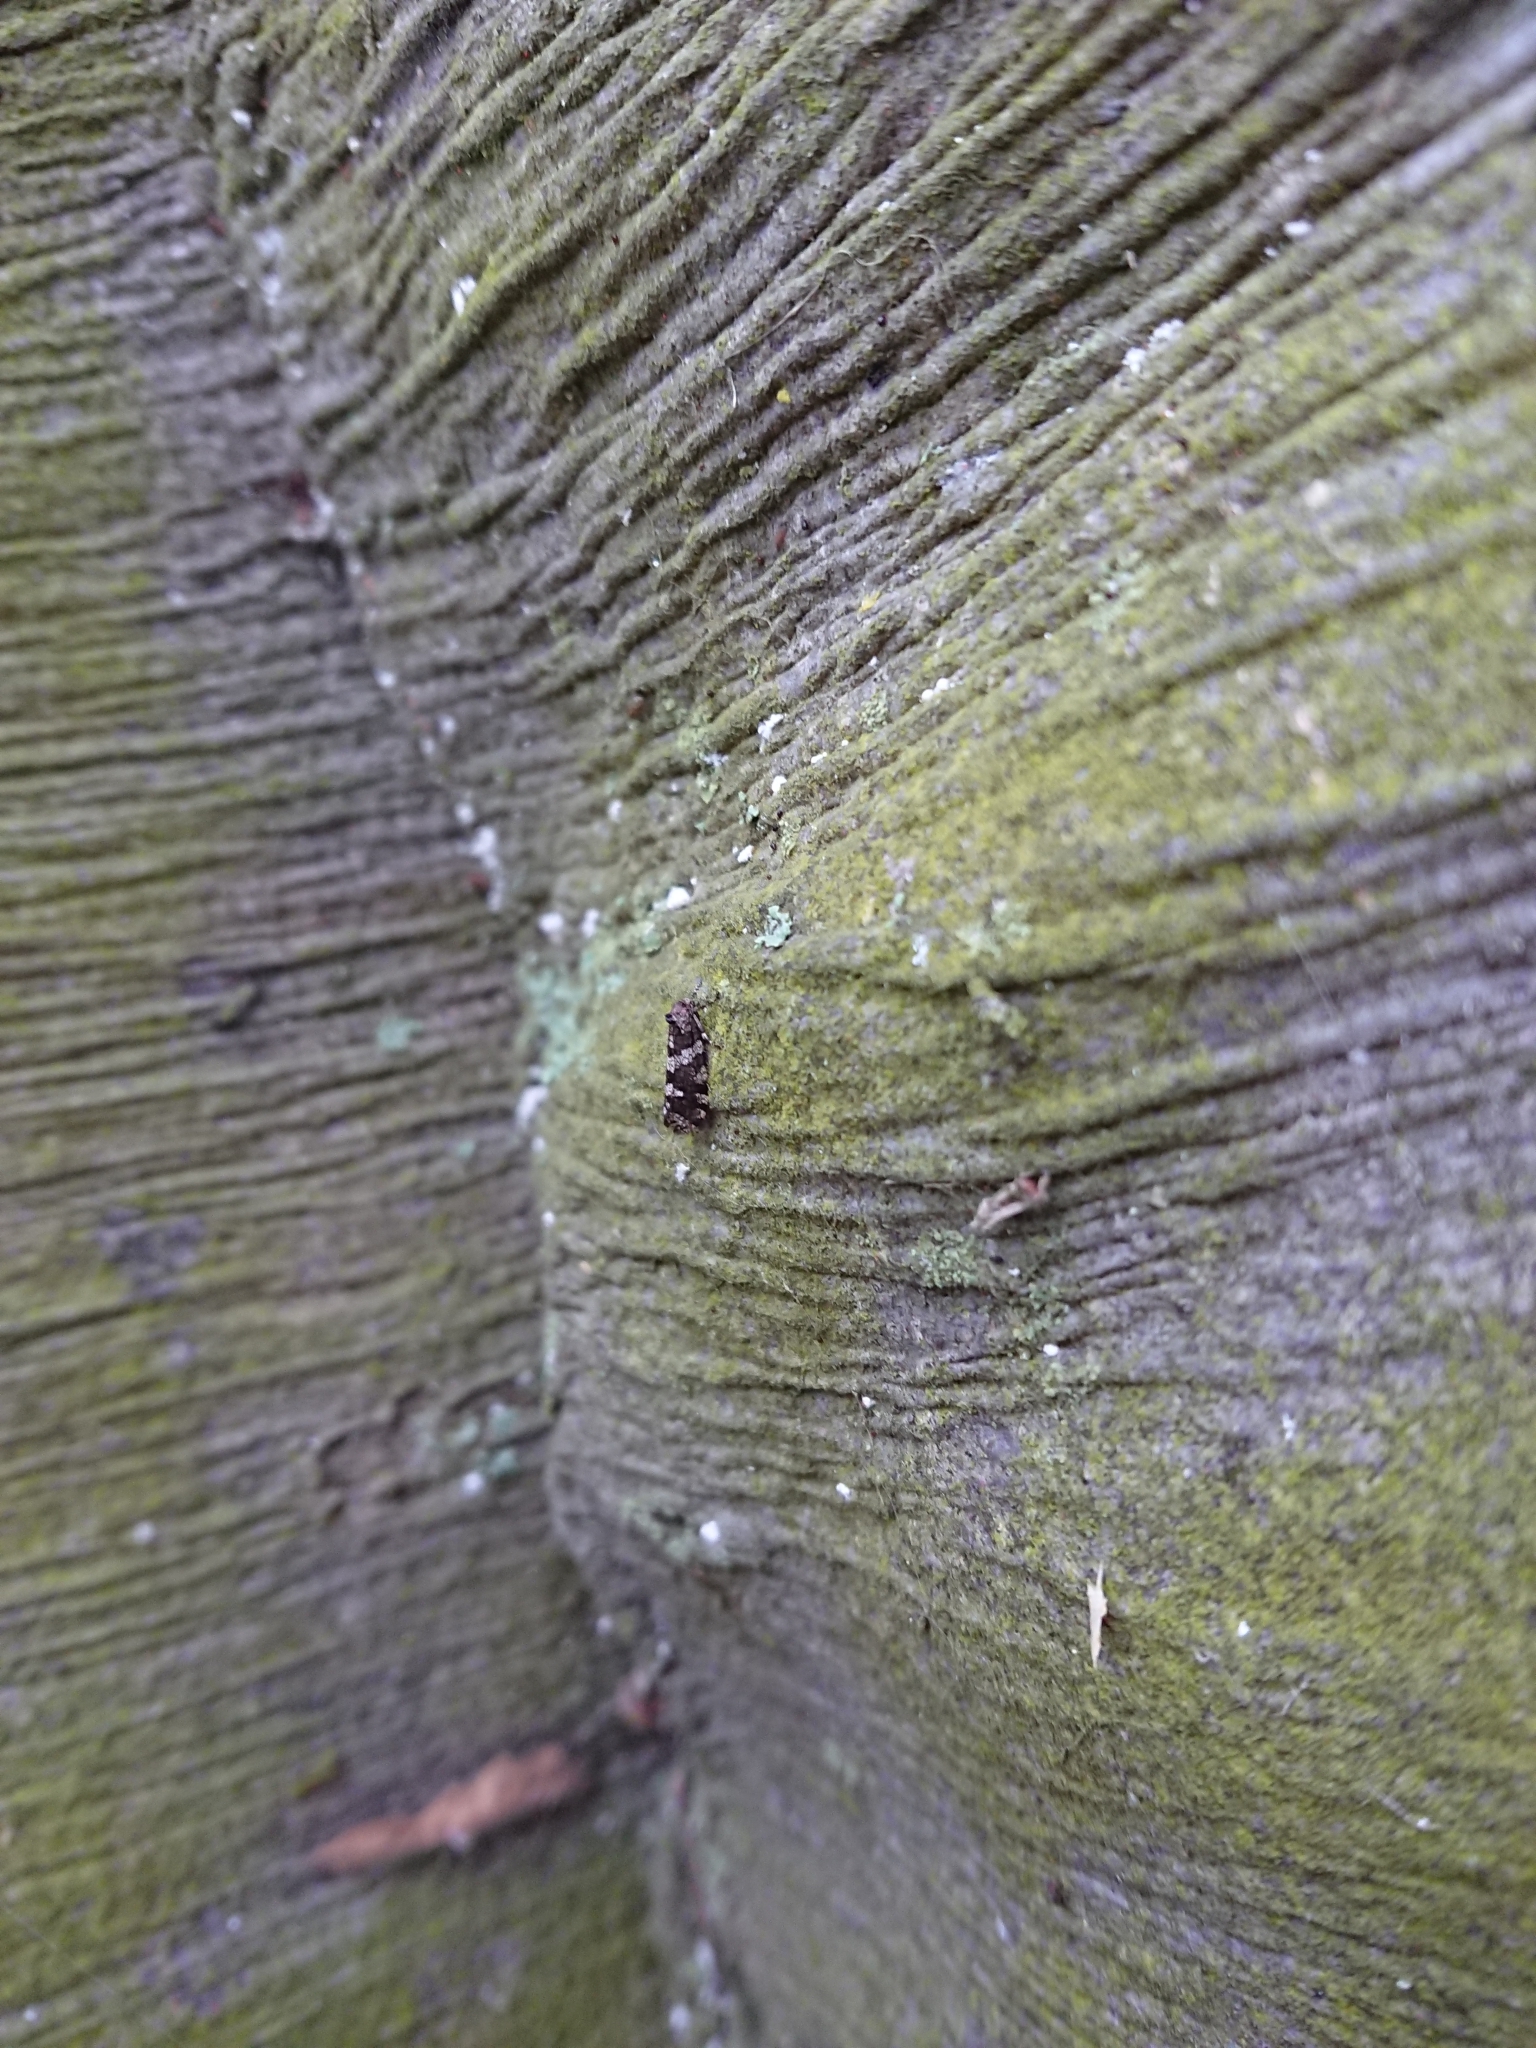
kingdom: Animalia
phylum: Arthropoda
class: Insecta
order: Lepidoptera
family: Psychidae
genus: Lepidoscia
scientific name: Lepidoscia heliochares
